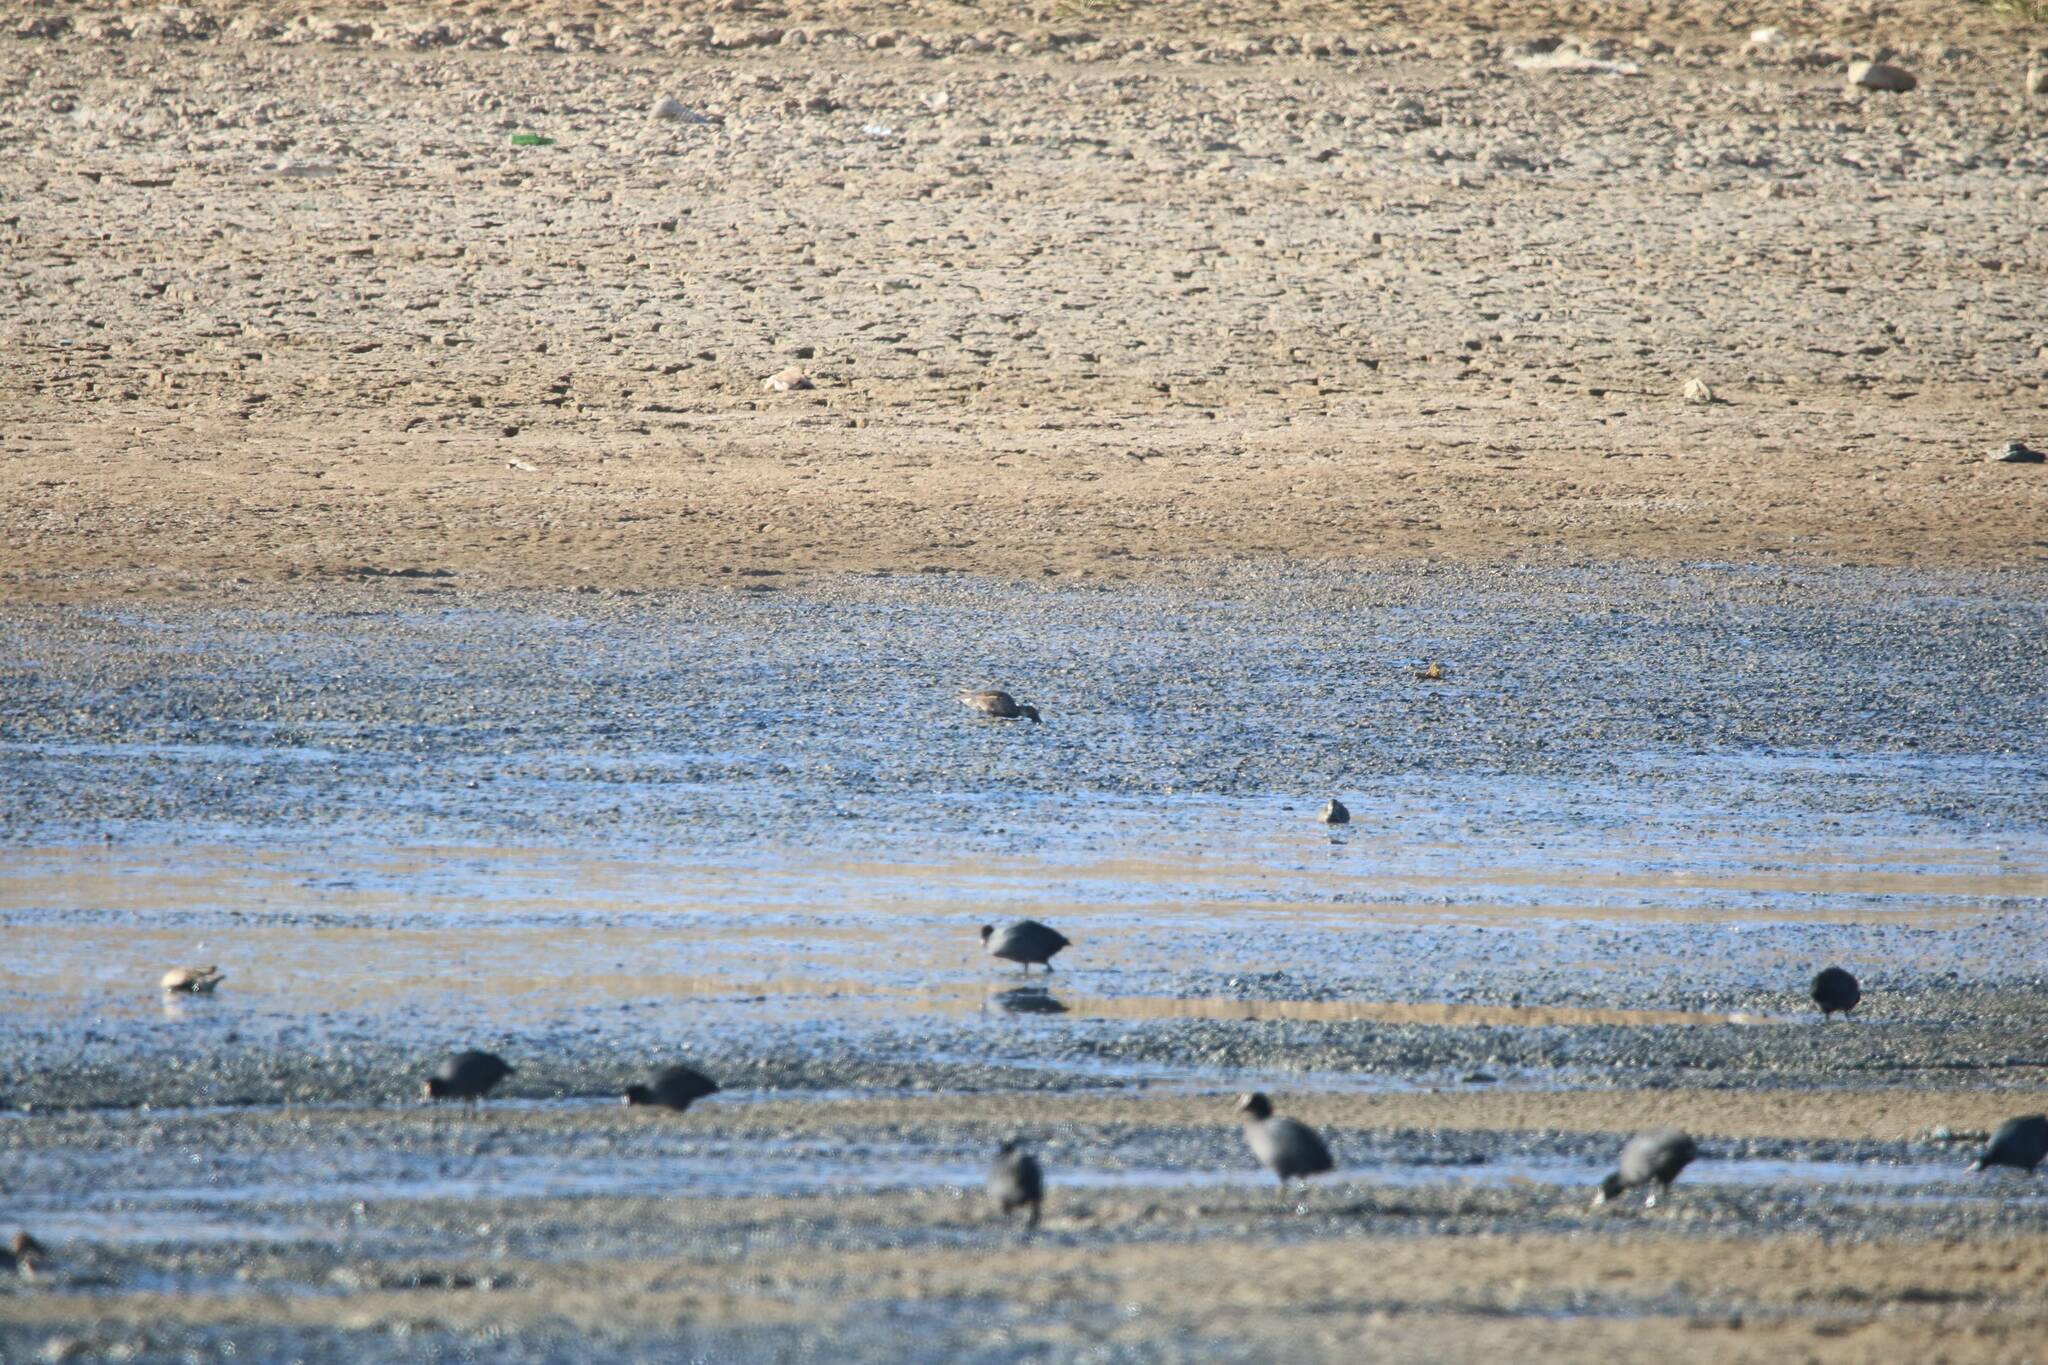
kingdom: Animalia
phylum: Chordata
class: Aves
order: Anseriformes
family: Anatidae
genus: Anas
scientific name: Anas crecca
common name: Eurasian teal
